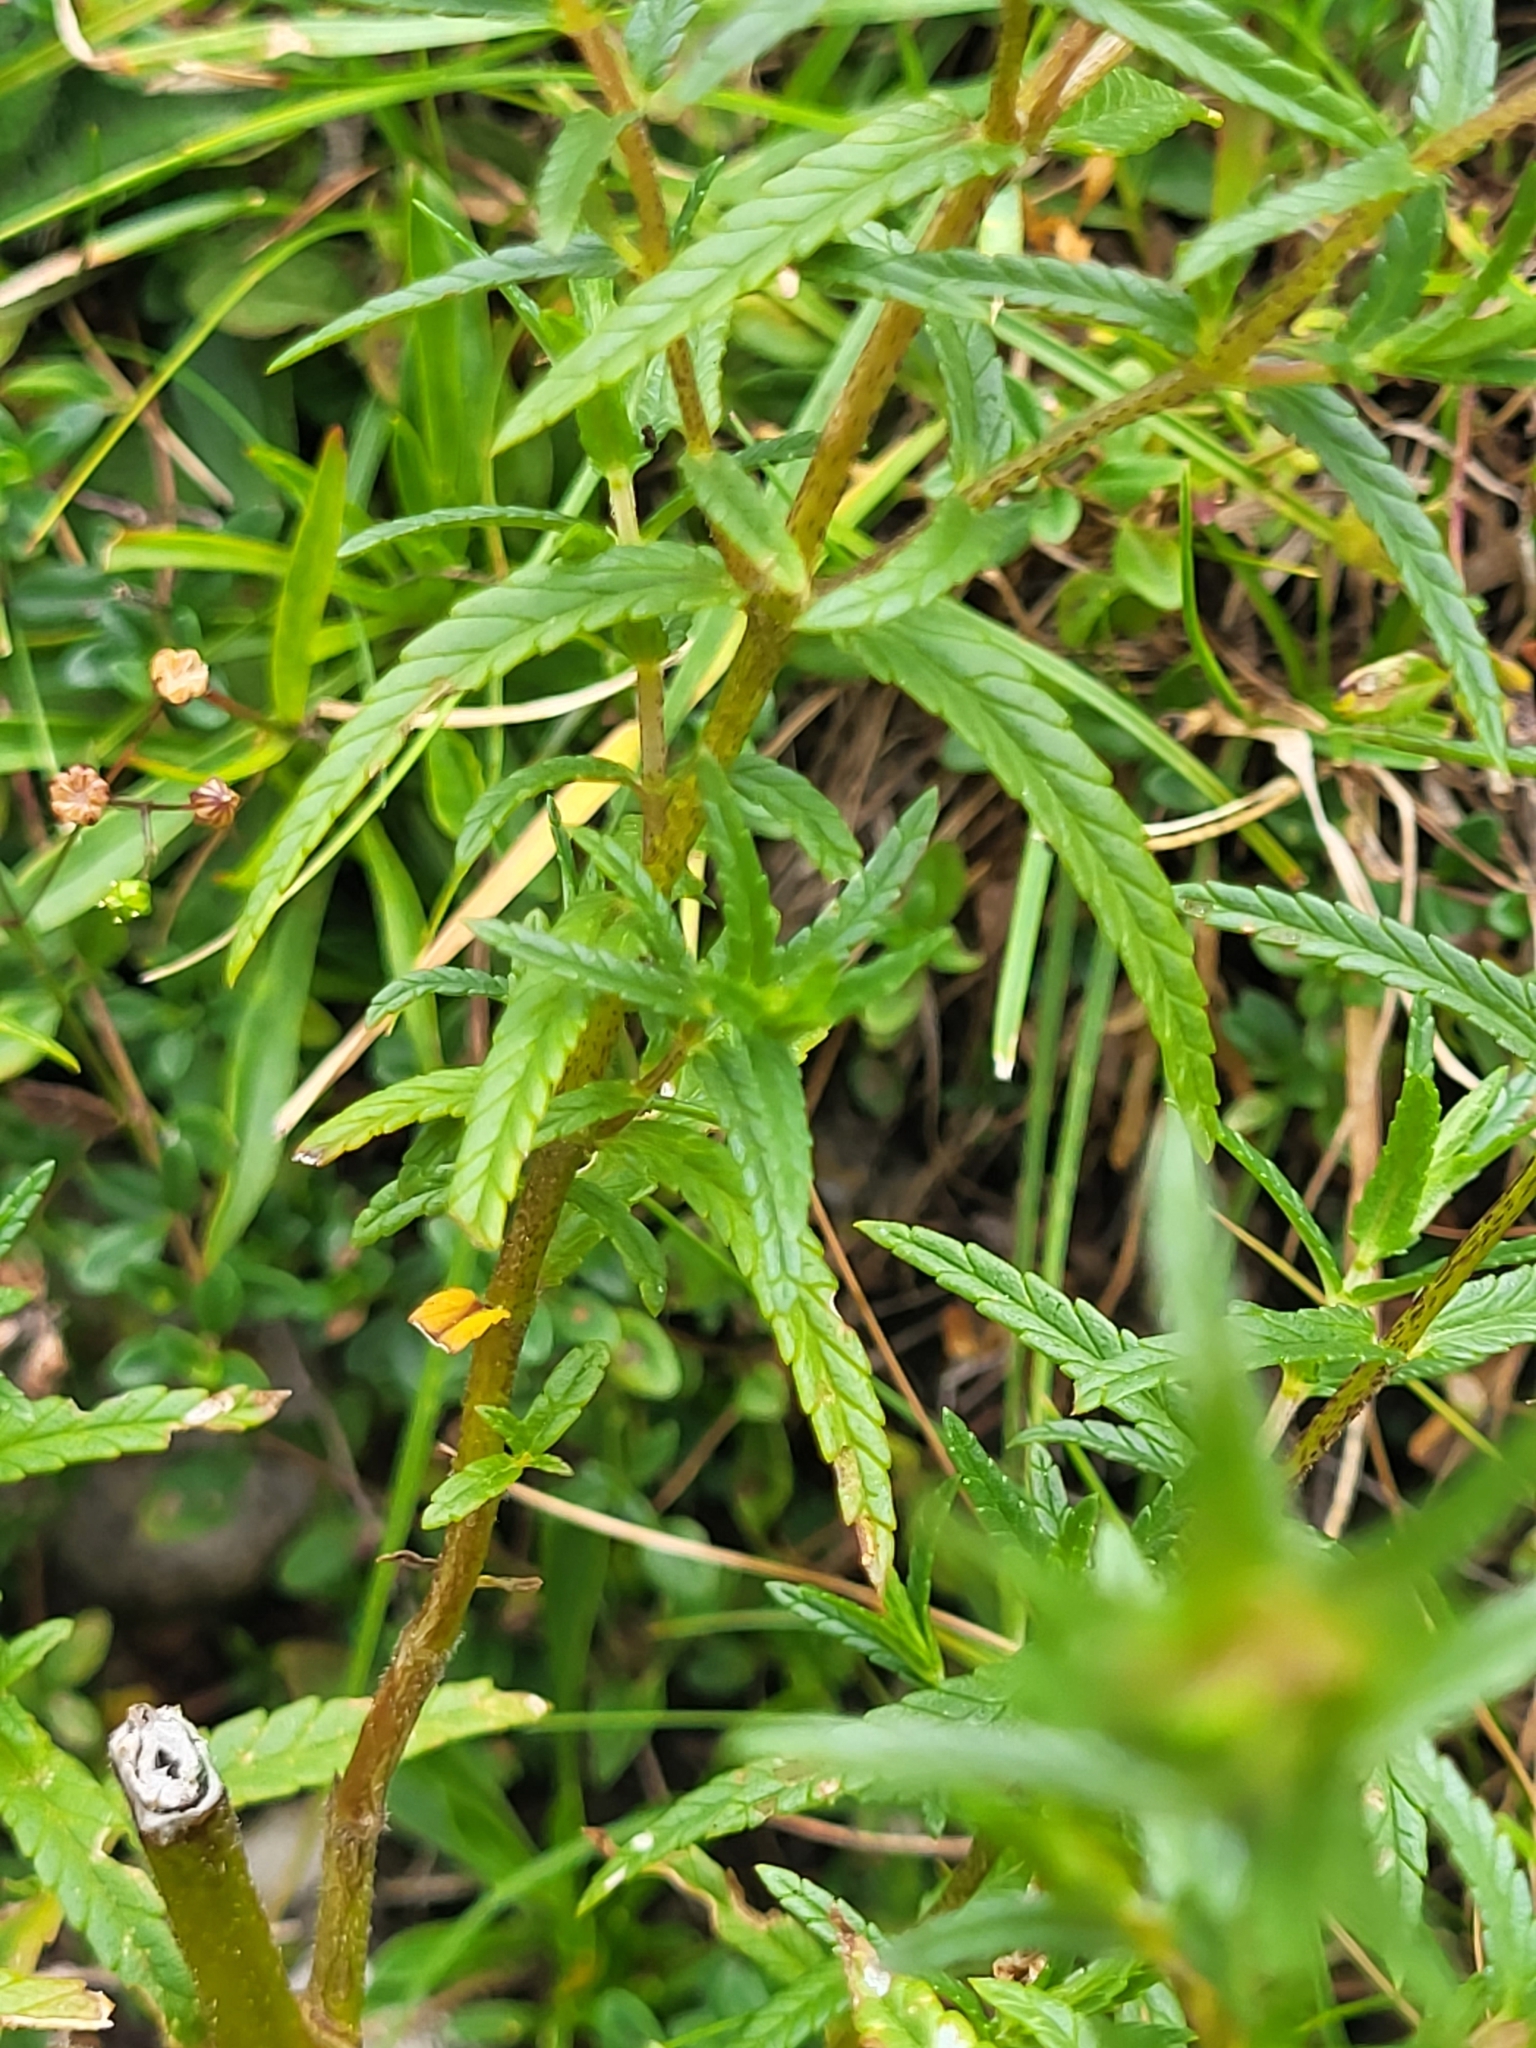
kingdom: Plantae
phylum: Tracheophyta
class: Magnoliopsida
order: Lamiales
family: Orobanchaceae
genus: Rhinanthus
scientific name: Rhinanthus glacialis
